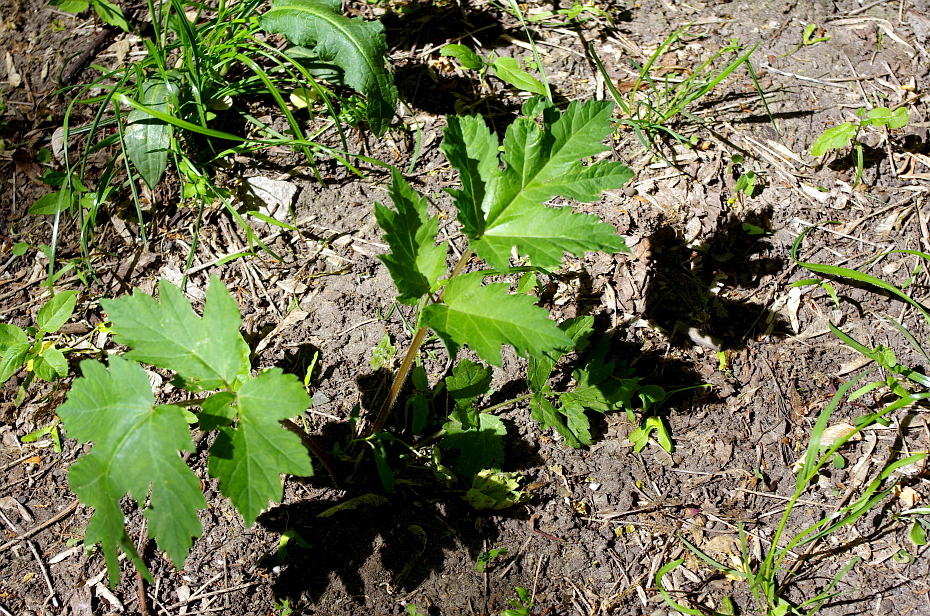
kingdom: Plantae
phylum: Tracheophyta
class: Magnoliopsida
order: Apiales
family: Apiaceae
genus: Heracleum
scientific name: Heracleum sphondylium
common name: Hogweed
